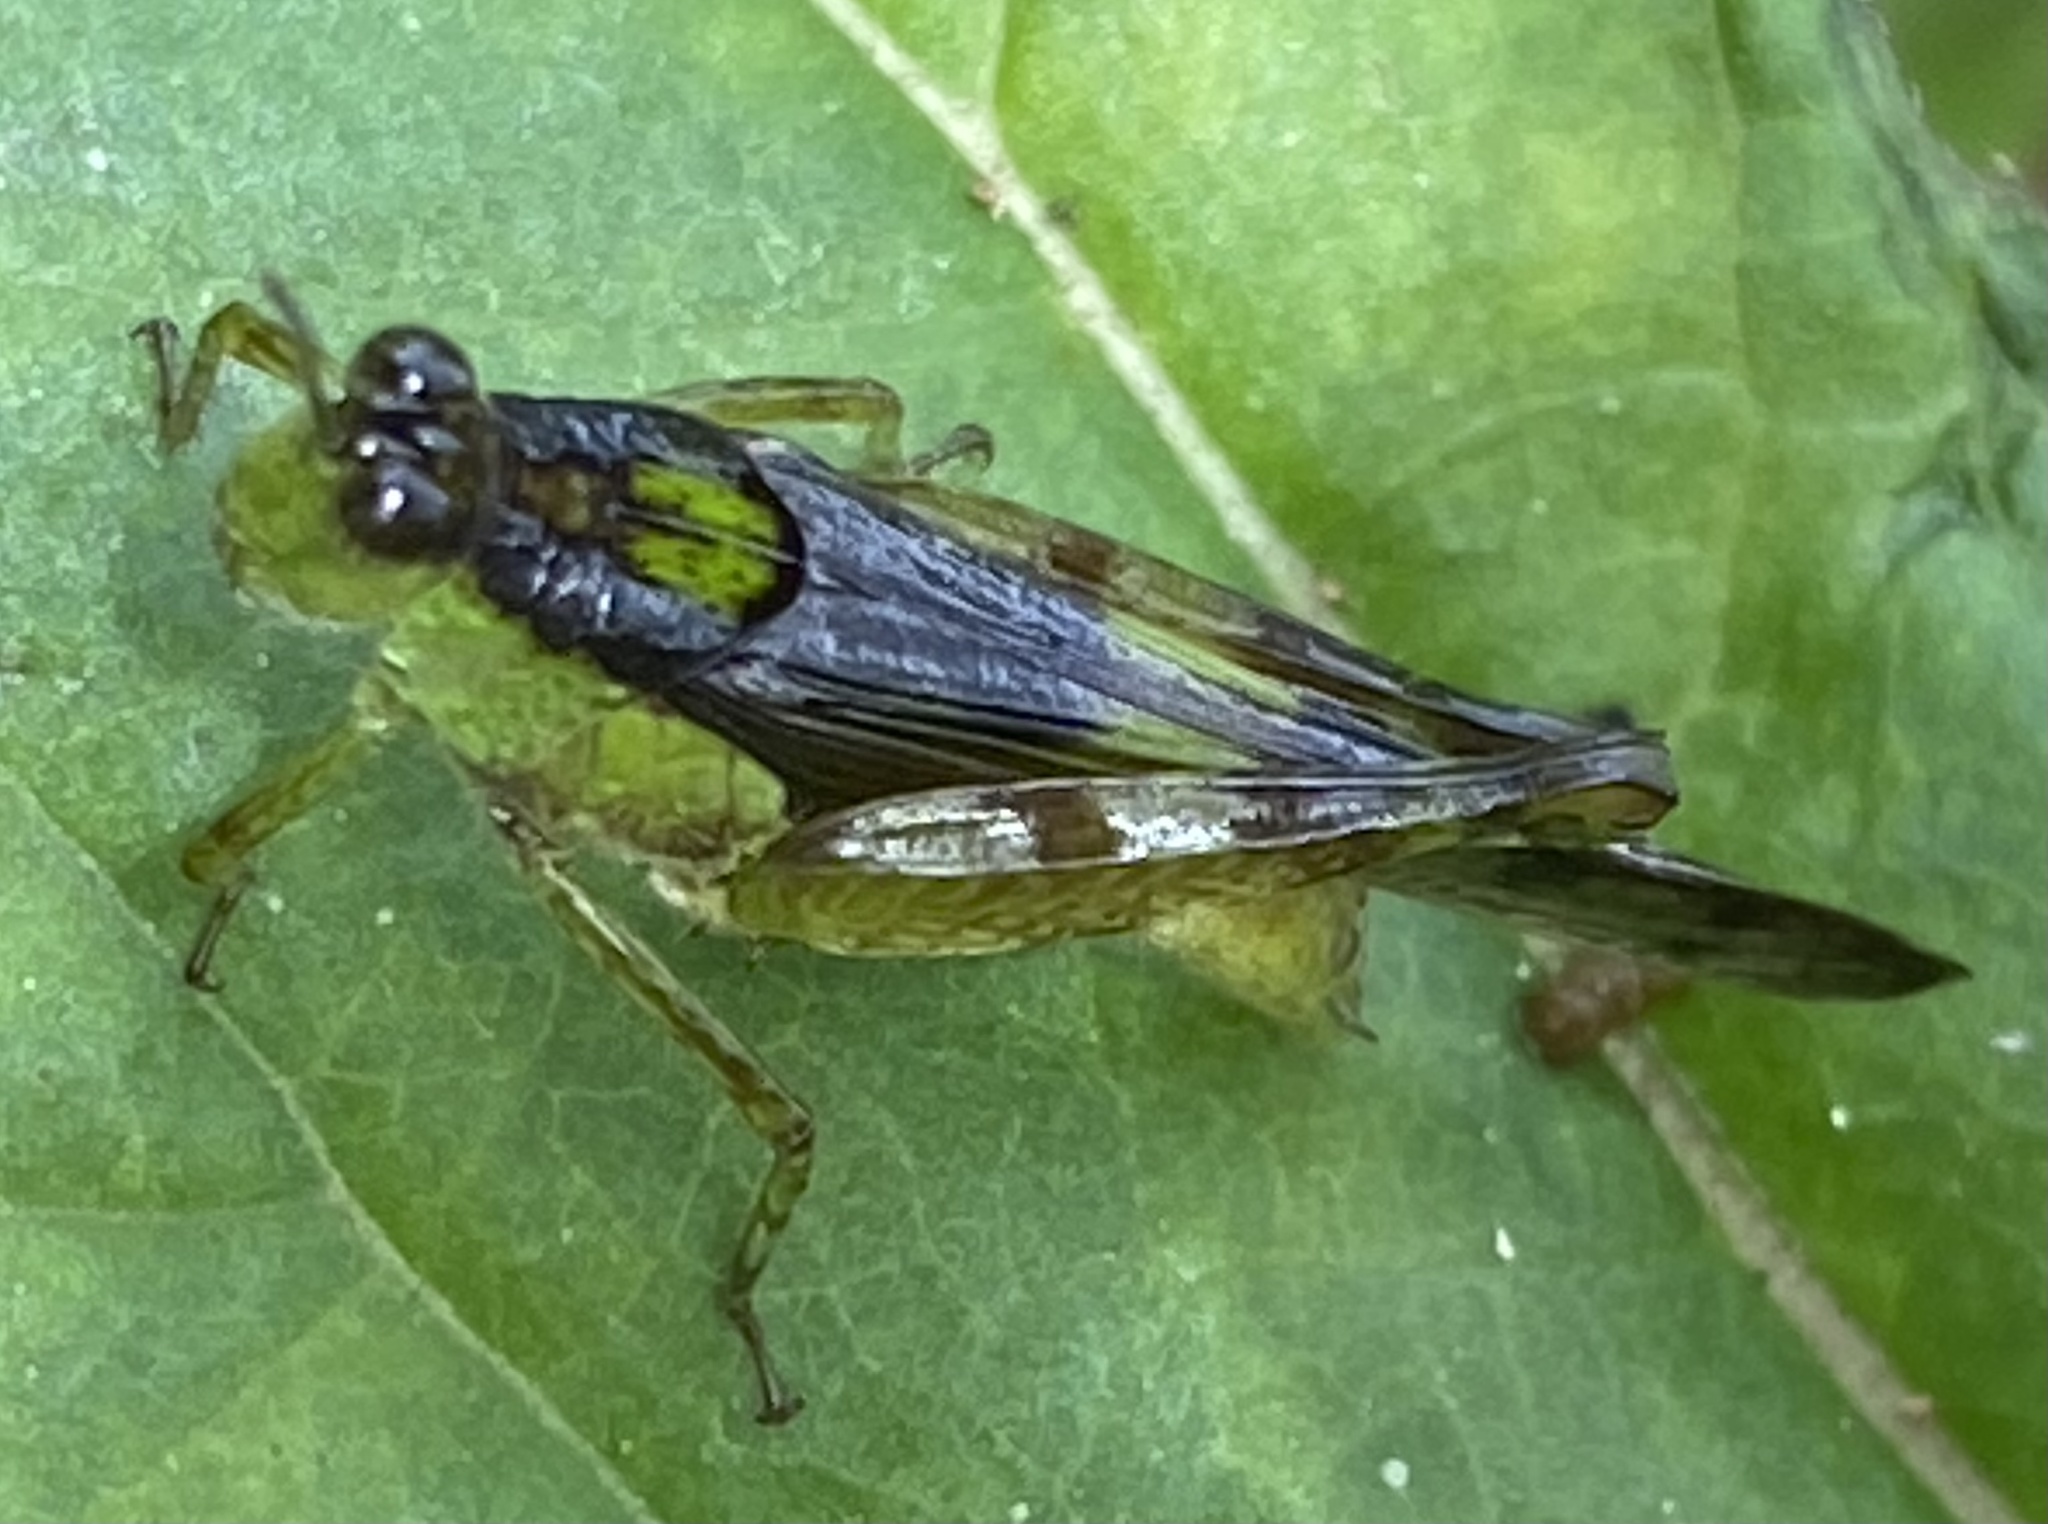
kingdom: Animalia
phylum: Arthropoda
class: Insecta
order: Orthoptera
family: Acrididae
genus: Paulinia
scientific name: Paulinia acuminata
